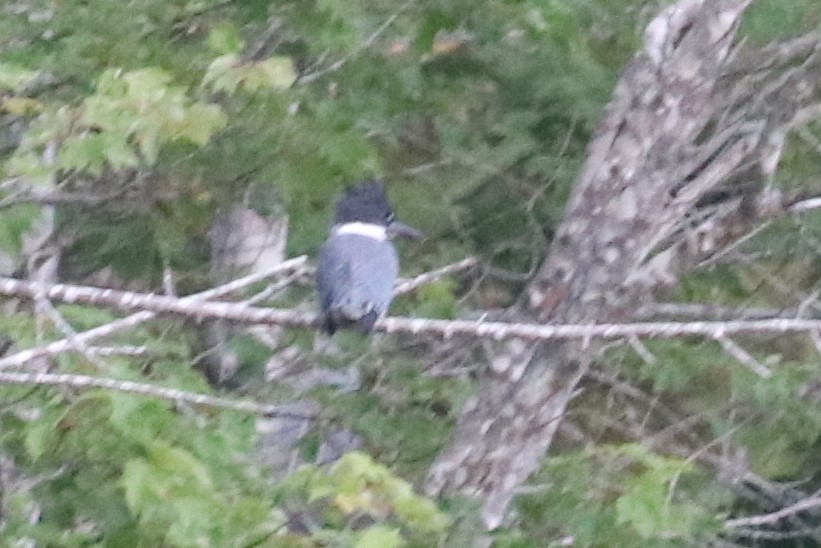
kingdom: Animalia
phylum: Chordata
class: Aves
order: Coraciiformes
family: Alcedinidae
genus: Megaceryle
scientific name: Megaceryle alcyon
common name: Belted kingfisher
